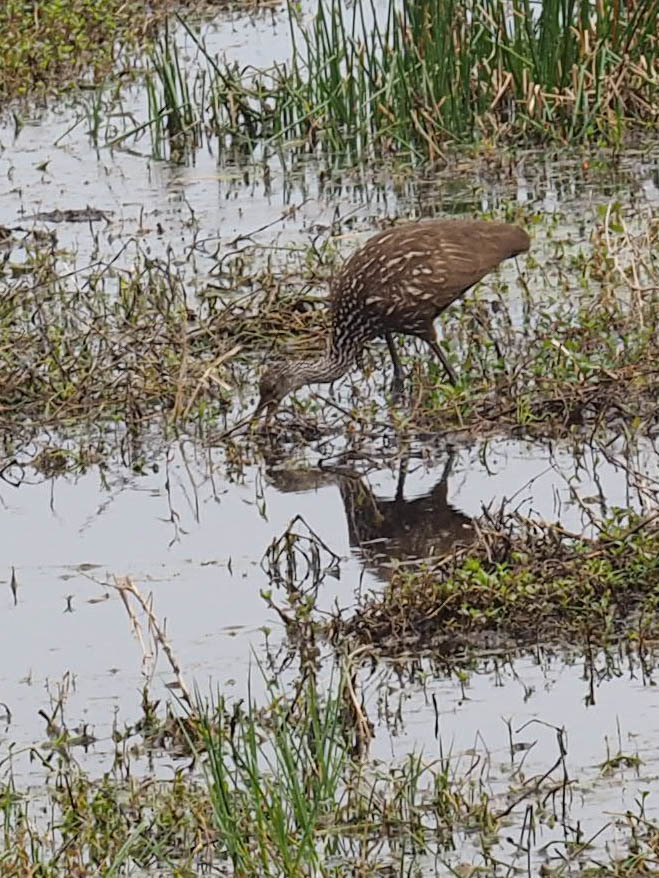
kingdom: Animalia
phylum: Chordata
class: Aves
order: Gruiformes
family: Aramidae
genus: Aramus
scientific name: Aramus guarauna
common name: Limpkin
